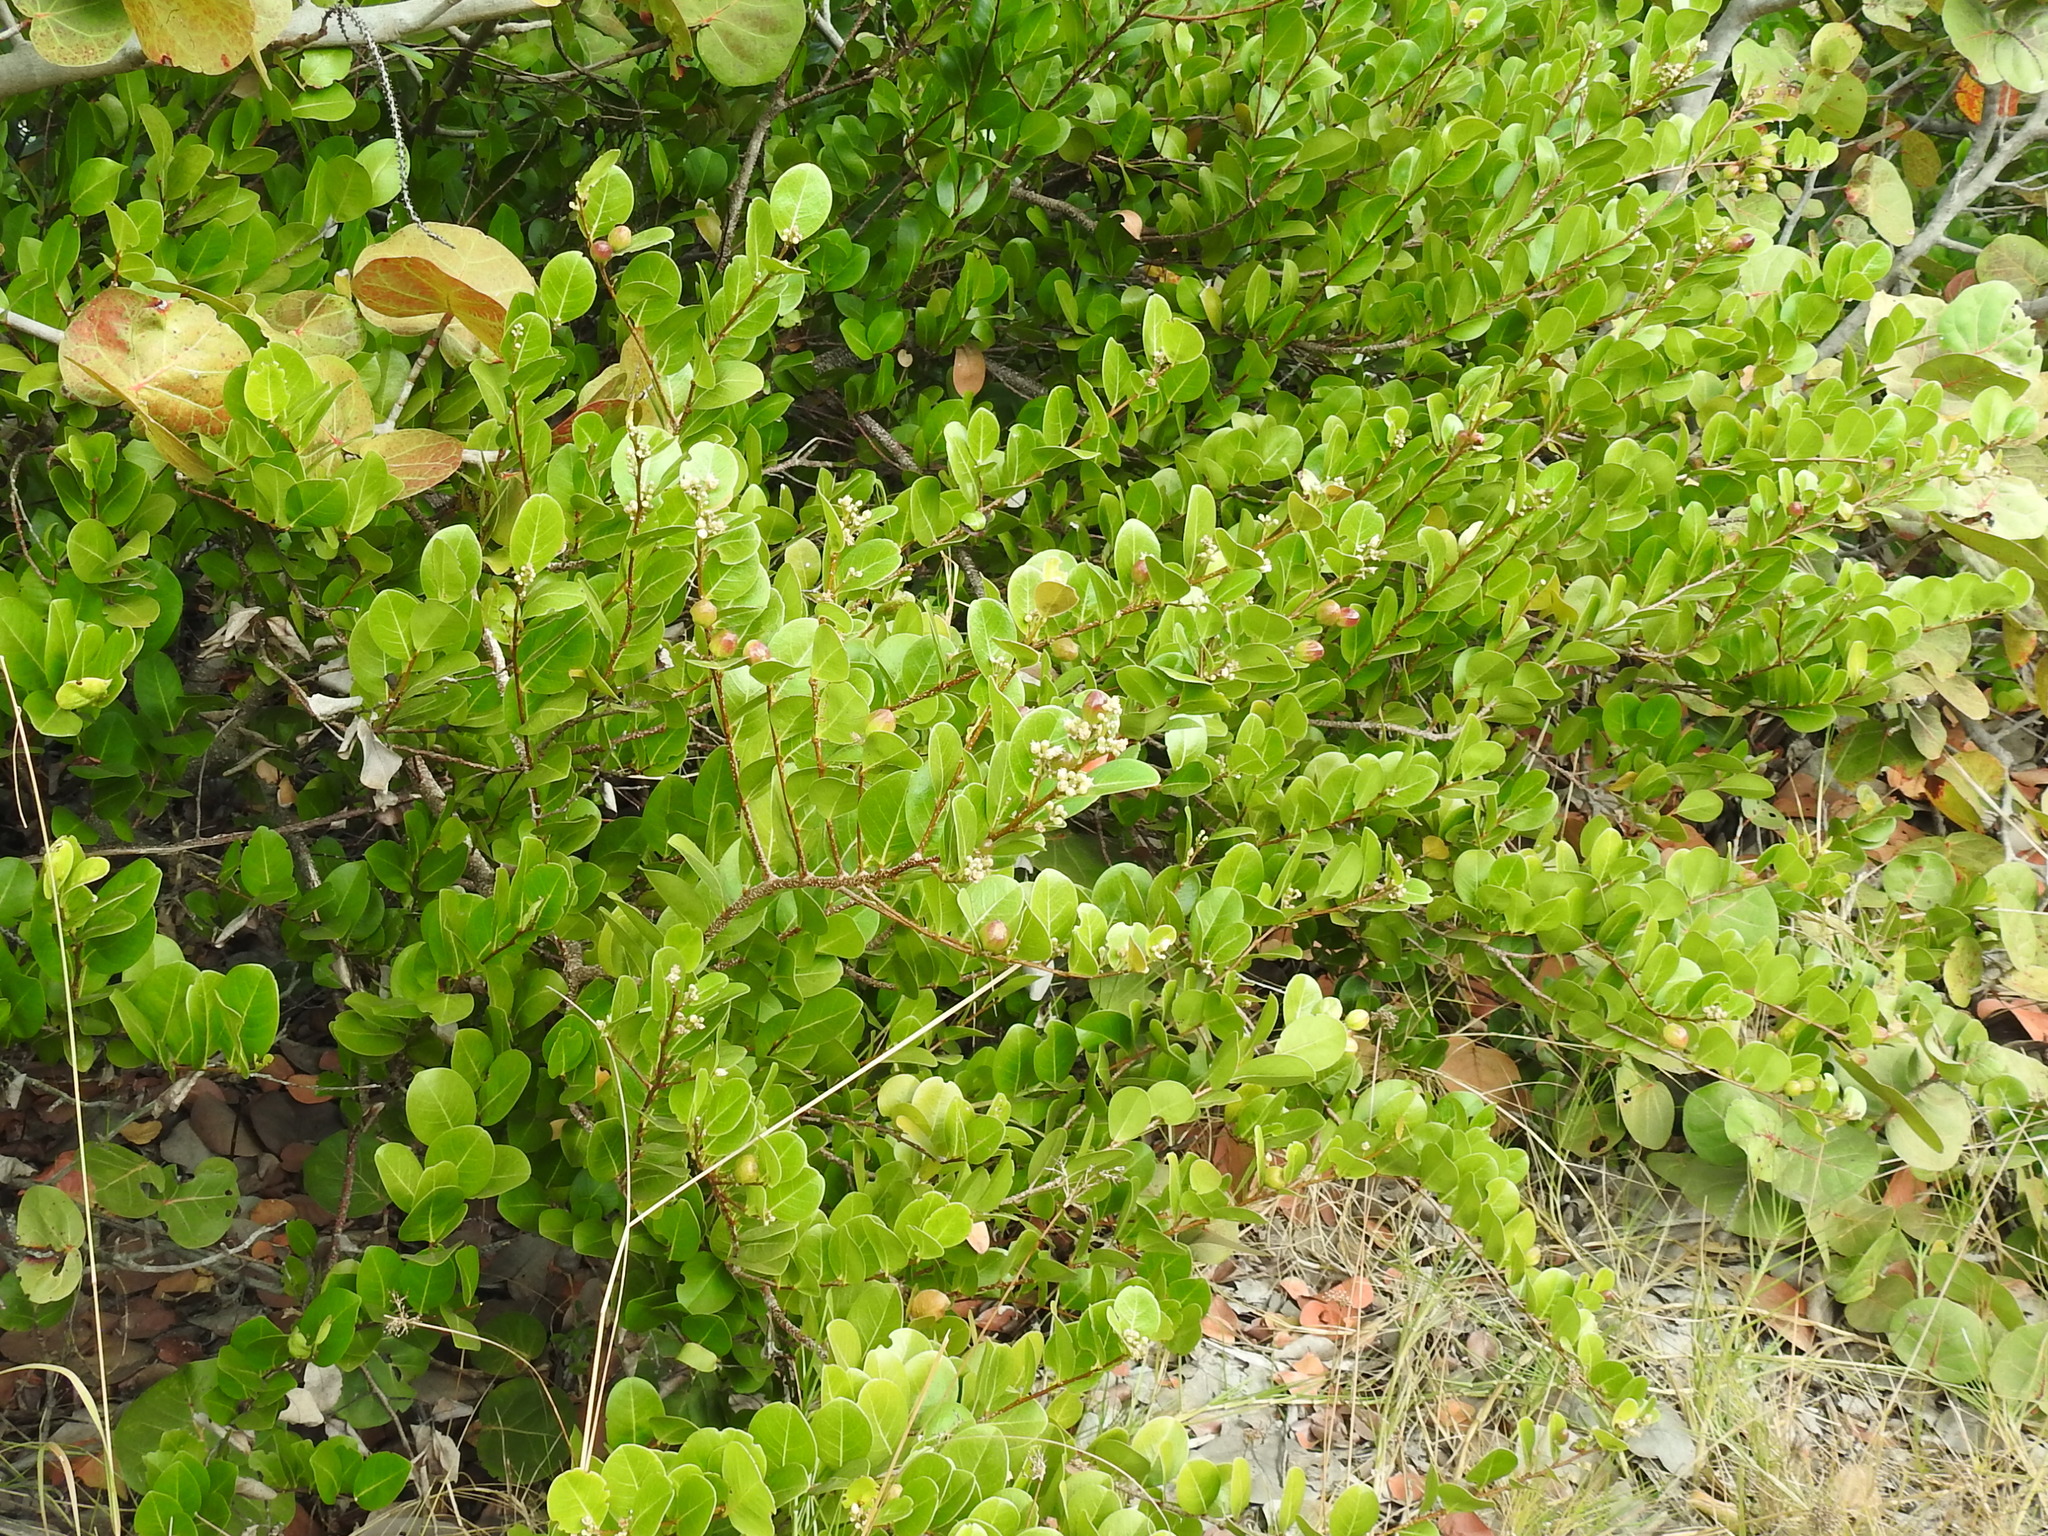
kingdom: Plantae
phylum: Tracheophyta
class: Magnoliopsida
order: Malpighiales
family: Chrysobalanaceae
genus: Chrysobalanus
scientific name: Chrysobalanus icaco
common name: Coco plum
